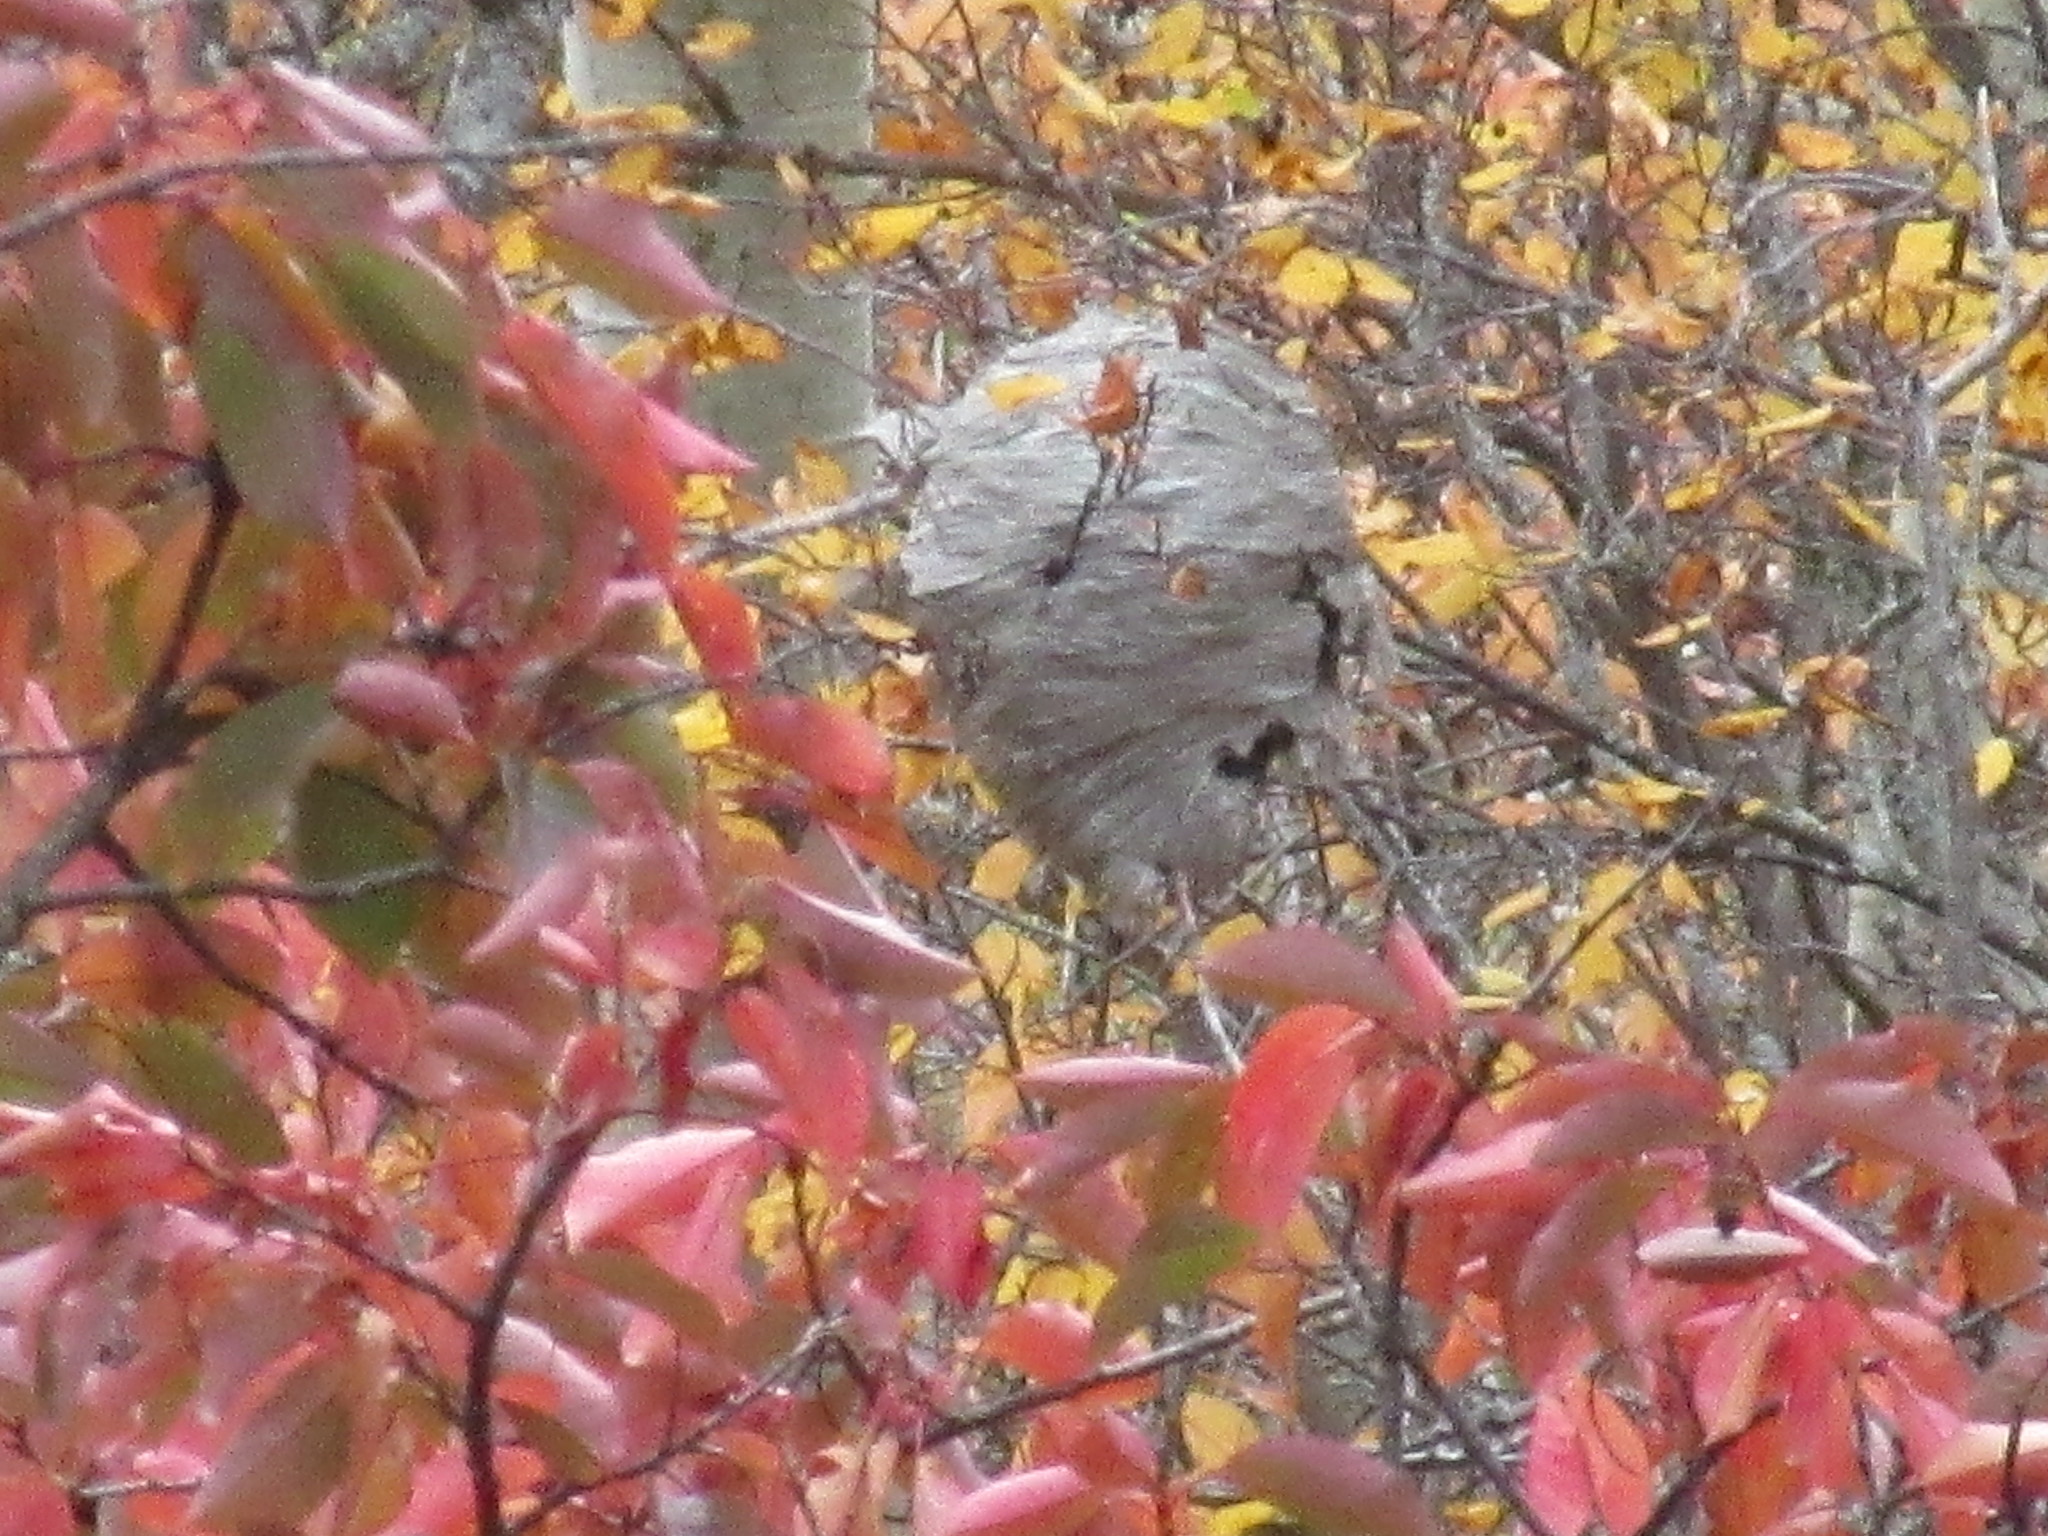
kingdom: Animalia
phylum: Arthropoda
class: Insecta
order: Hymenoptera
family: Vespidae
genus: Dolichovespula
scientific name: Dolichovespula
